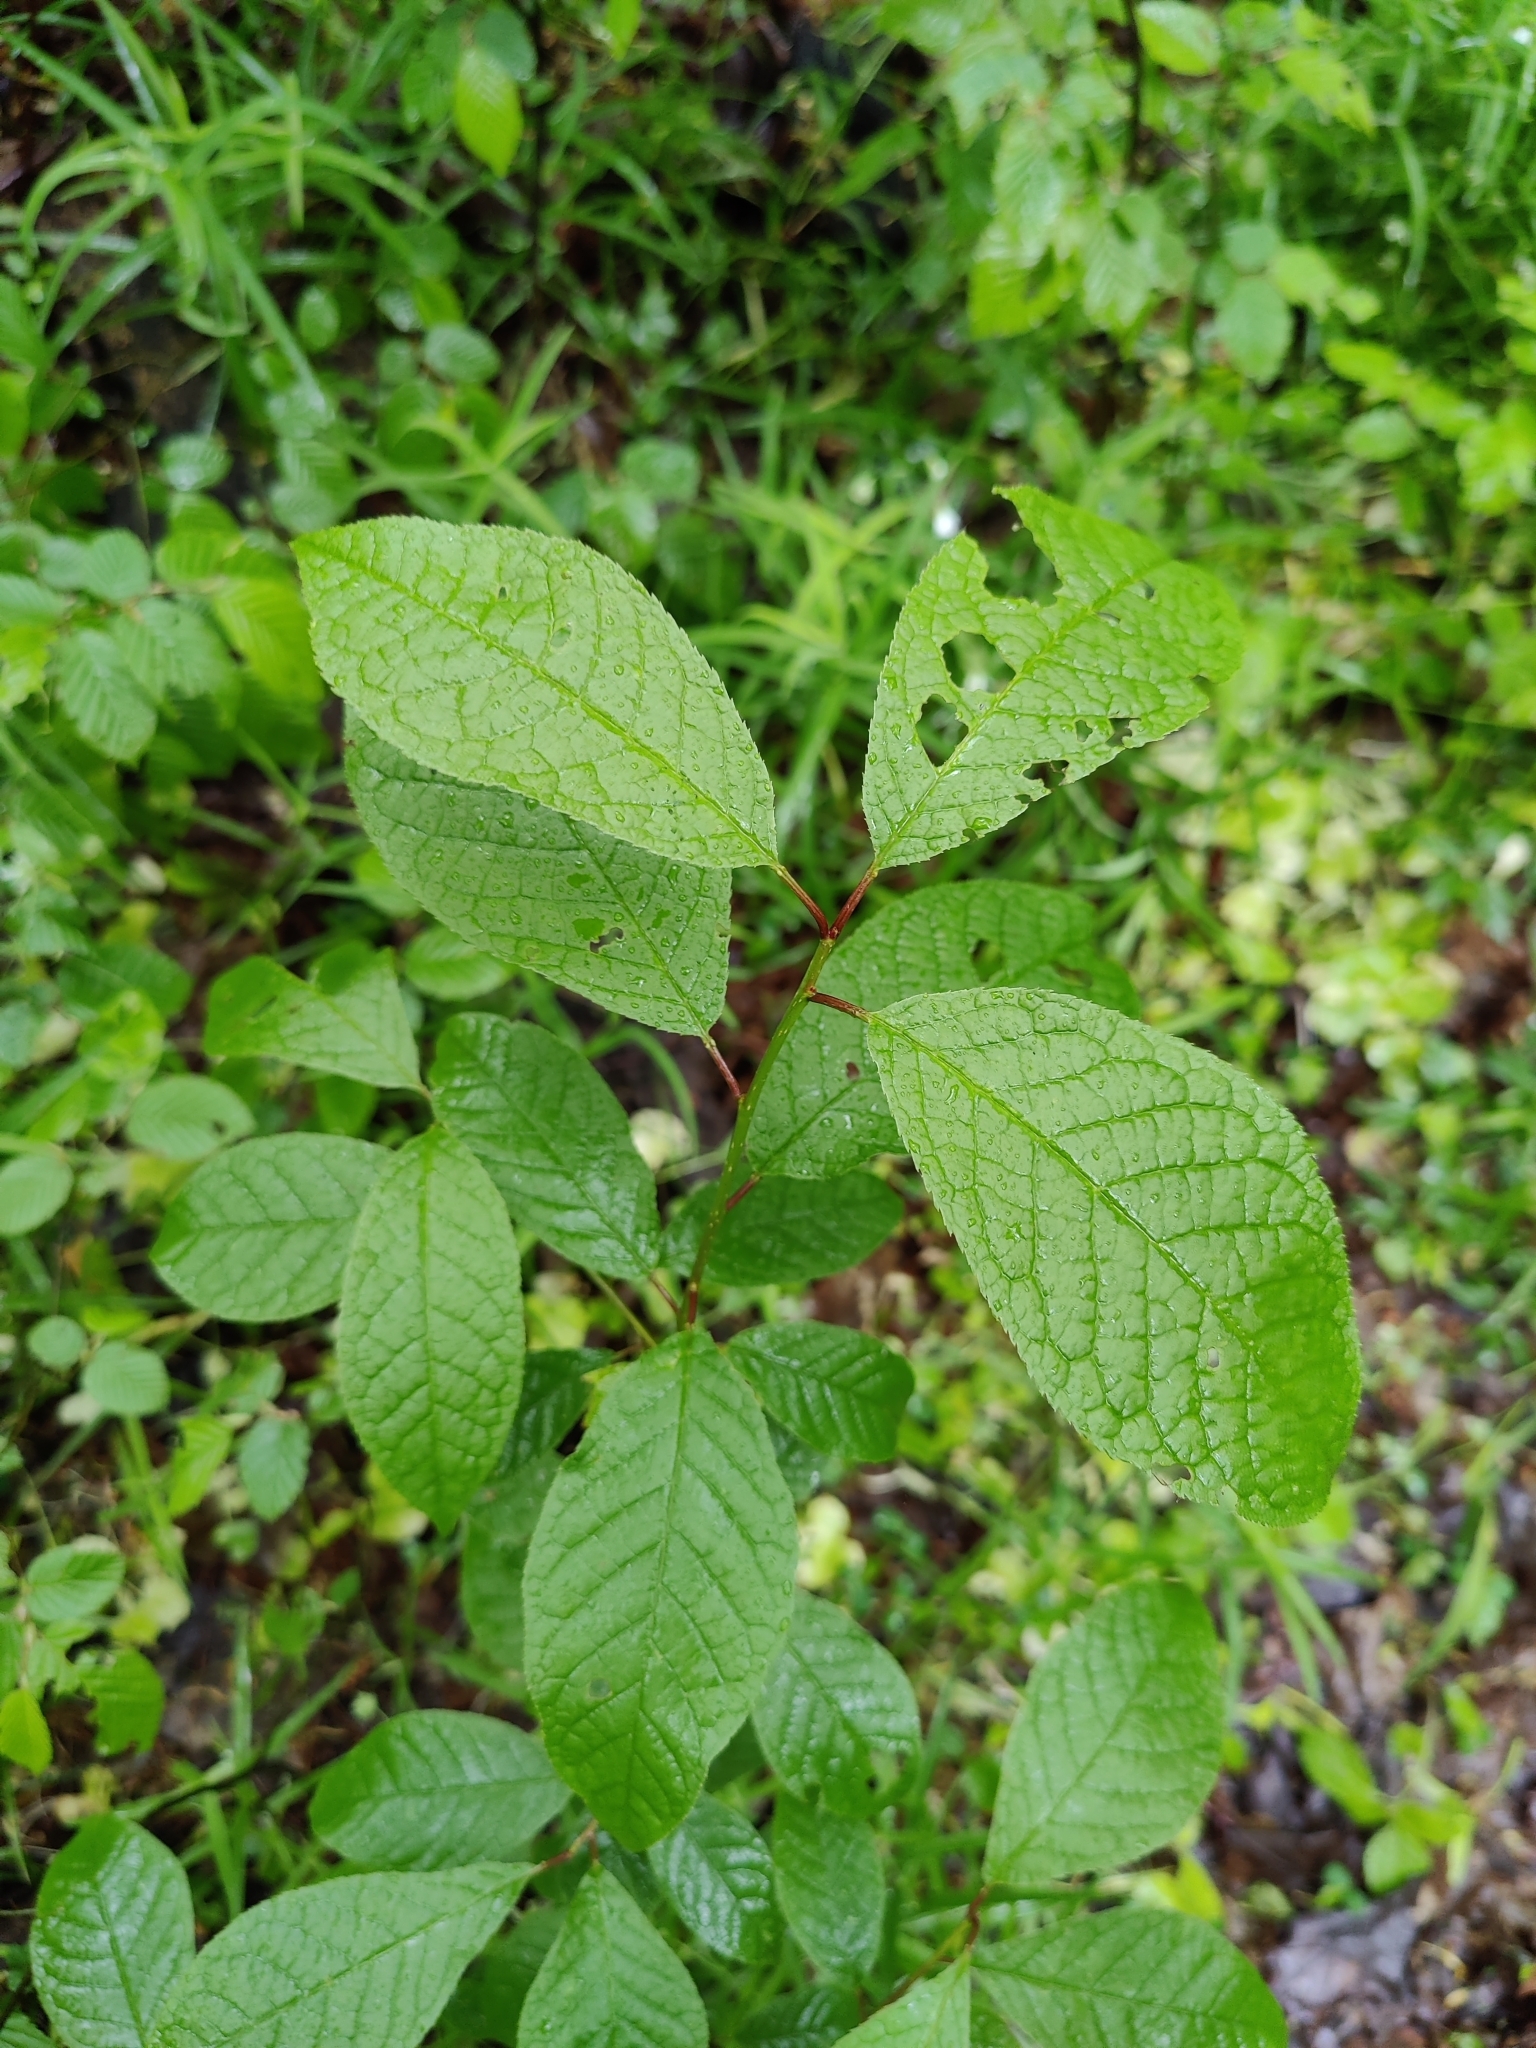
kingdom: Plantae
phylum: Tracheophyta
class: Magnoliopsida
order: Rosales
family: Rosaceae
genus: Prunus
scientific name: Prunus padus
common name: Bird cherry
